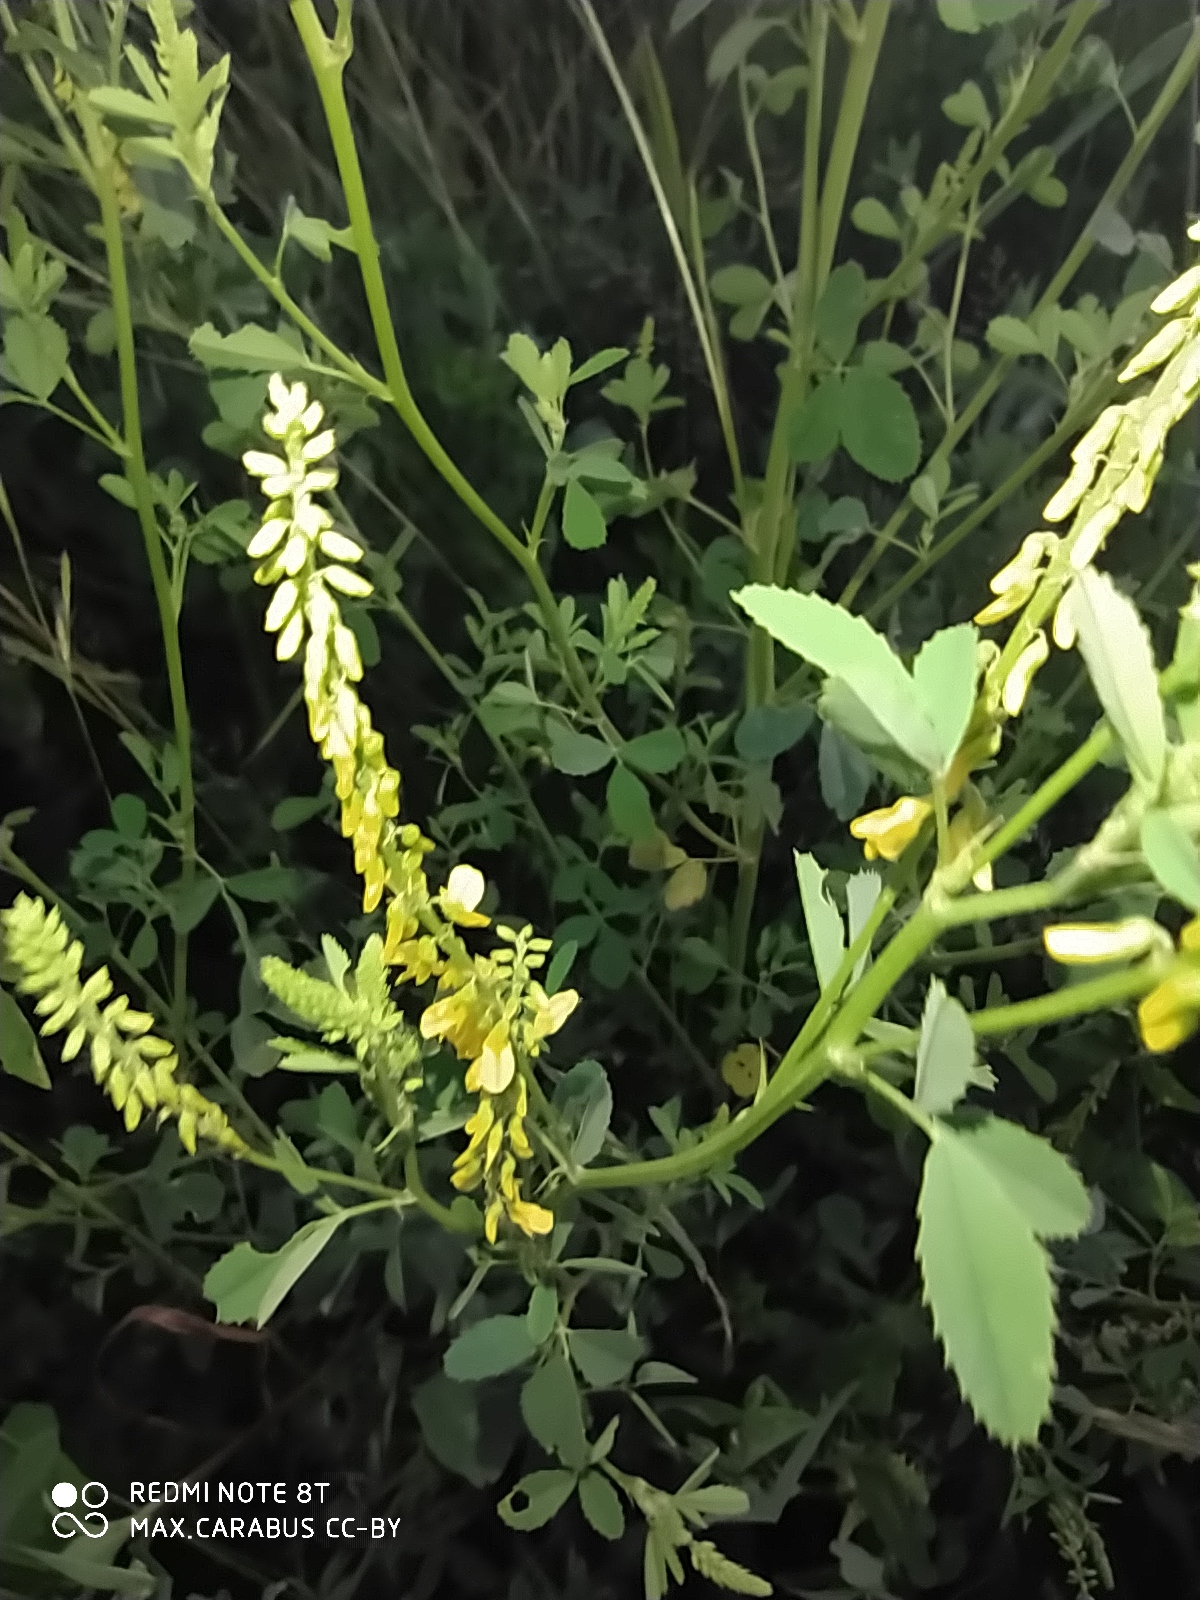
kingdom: Plantae
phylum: Tracheophyta
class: Magnoliopsida
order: Fabales
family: Fabaceae
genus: Melilotus
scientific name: Melilotus officinalis
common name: Sweetclover
